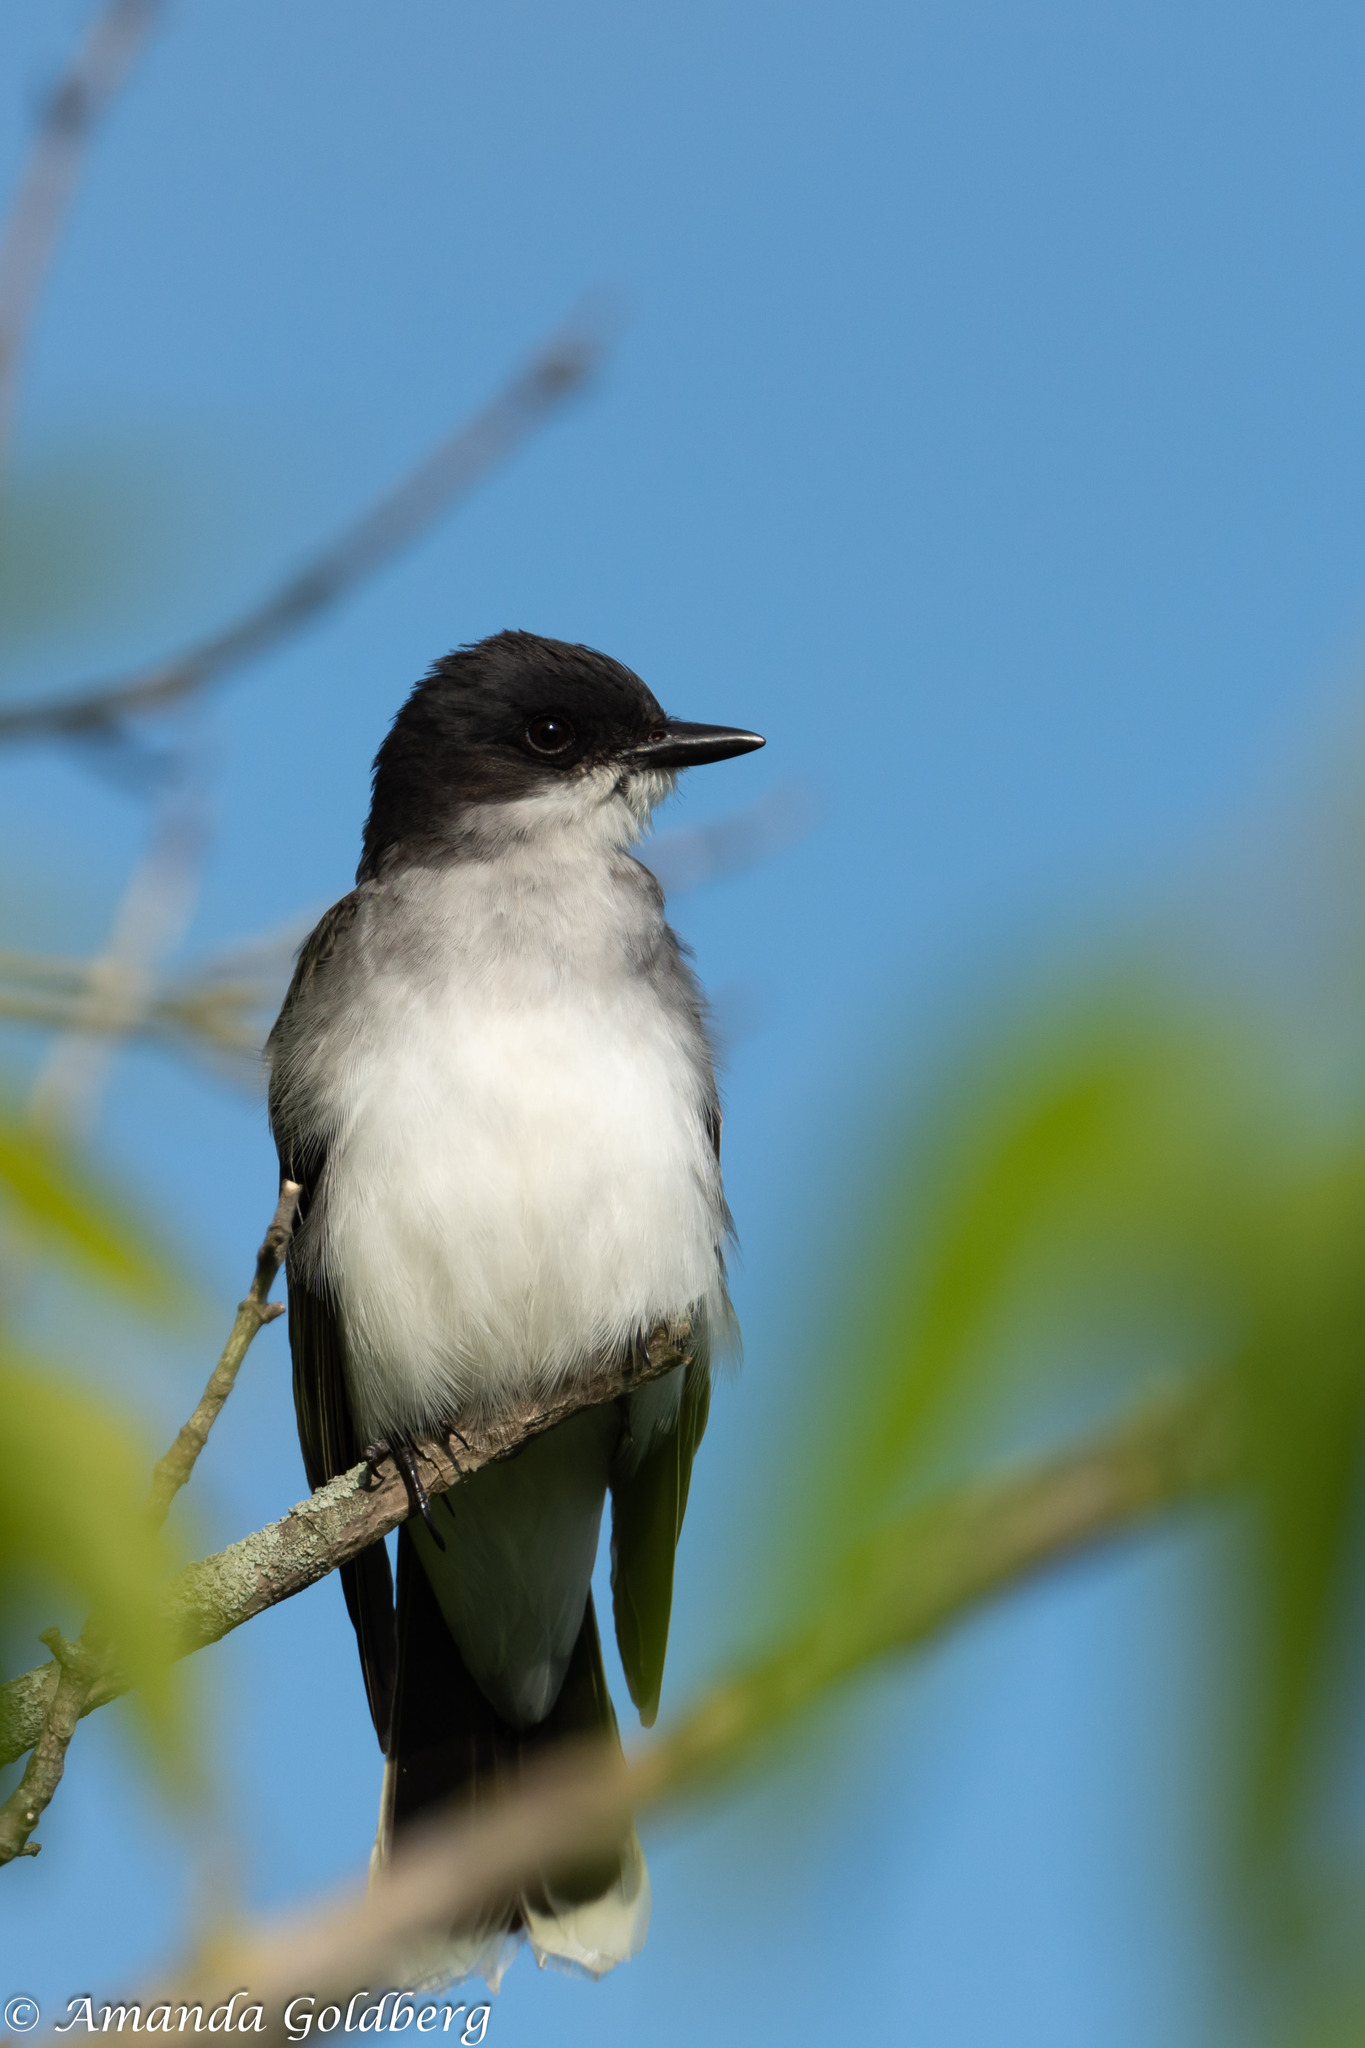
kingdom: Animalia
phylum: Chordata
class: Aves
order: Passeriformes
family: Tyrannidae
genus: Tyrannus
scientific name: Tyrannus tyrannus
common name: Eastern kingbird
